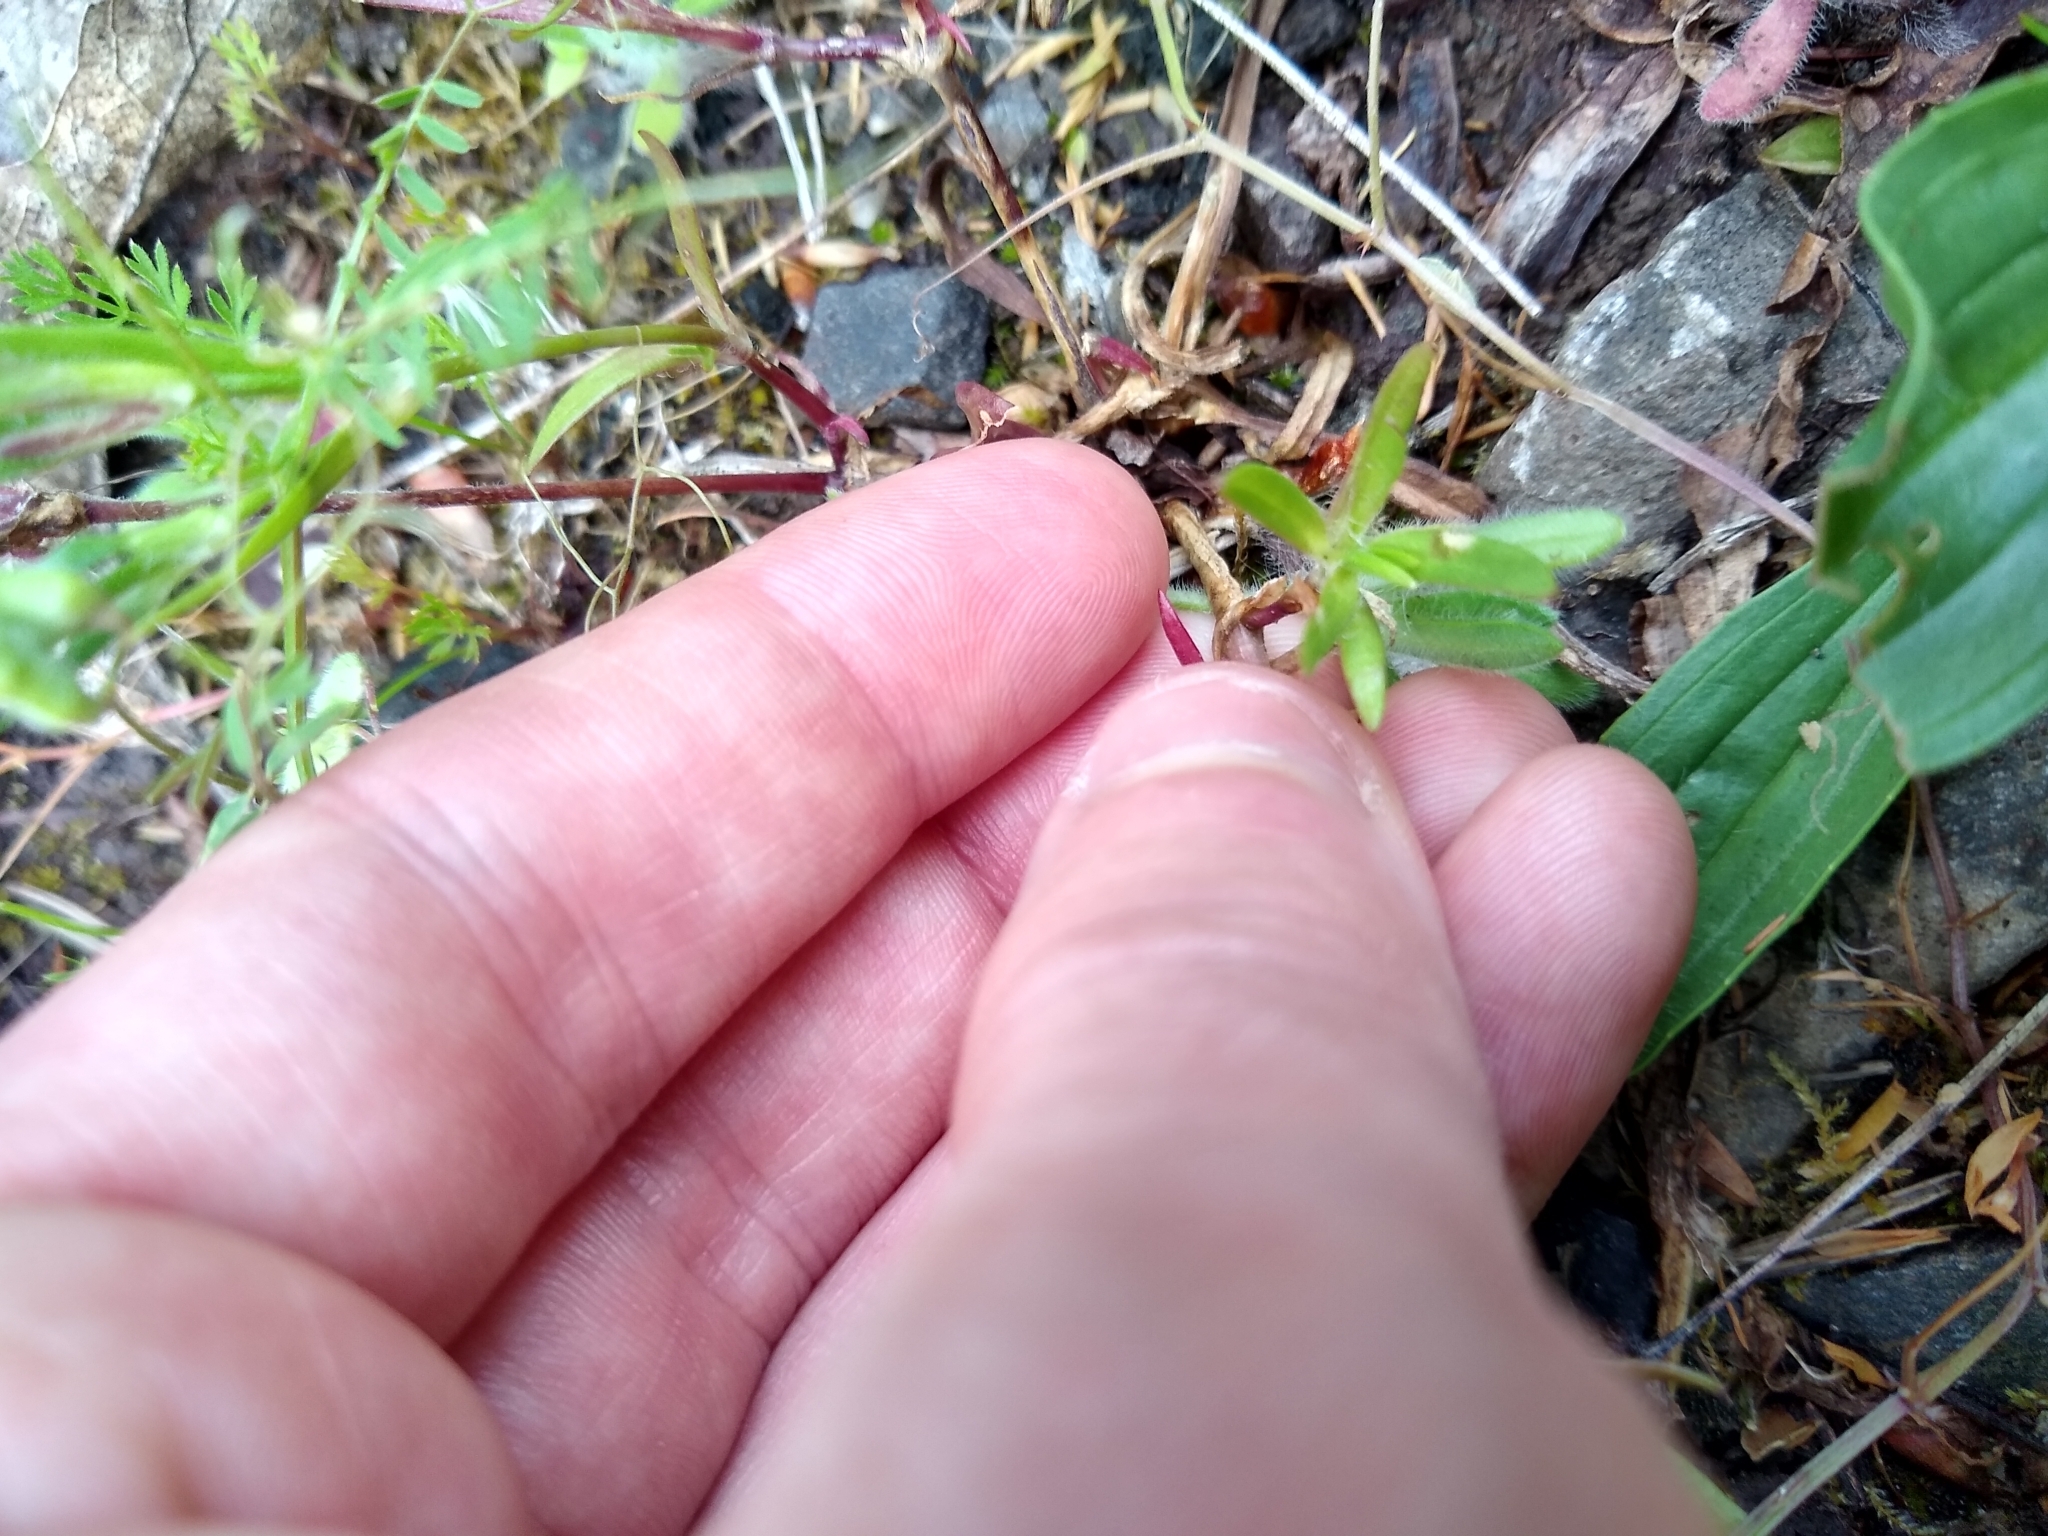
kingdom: Plantae
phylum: Tracheophyta
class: Magnoliopsida
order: Caryophyllales
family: Caryophyllaceae
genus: Dianthus
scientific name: Dianthus armeria
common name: Deptford pink
